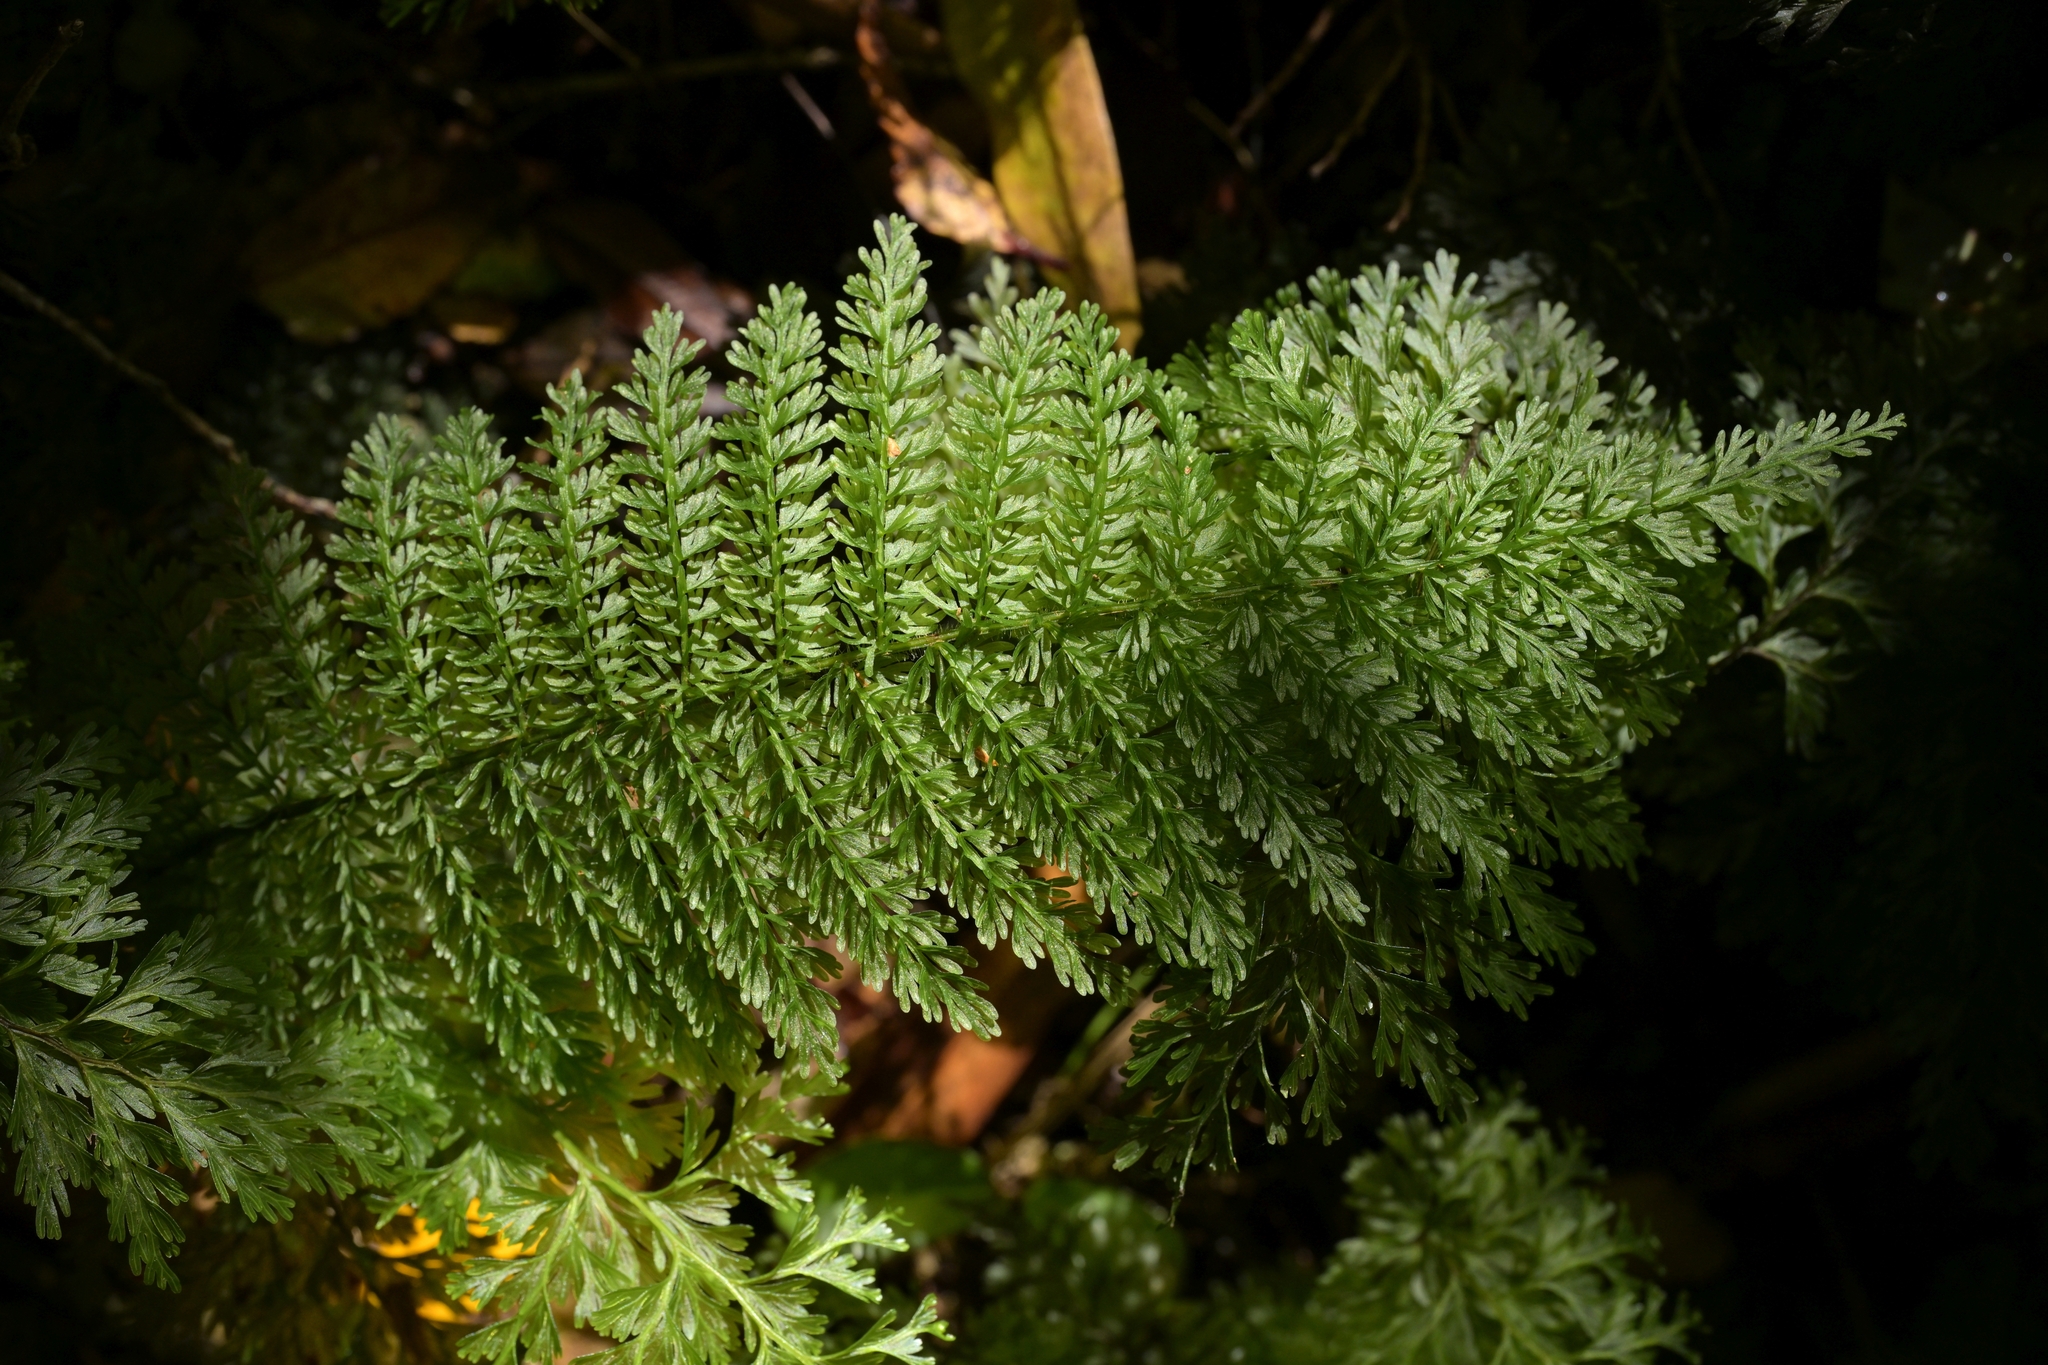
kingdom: Plantae
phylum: Tracheophyta
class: Polypodiopsida
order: Osmundales
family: Osmundaceae
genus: Leptopteris
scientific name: Leptopteris superba
